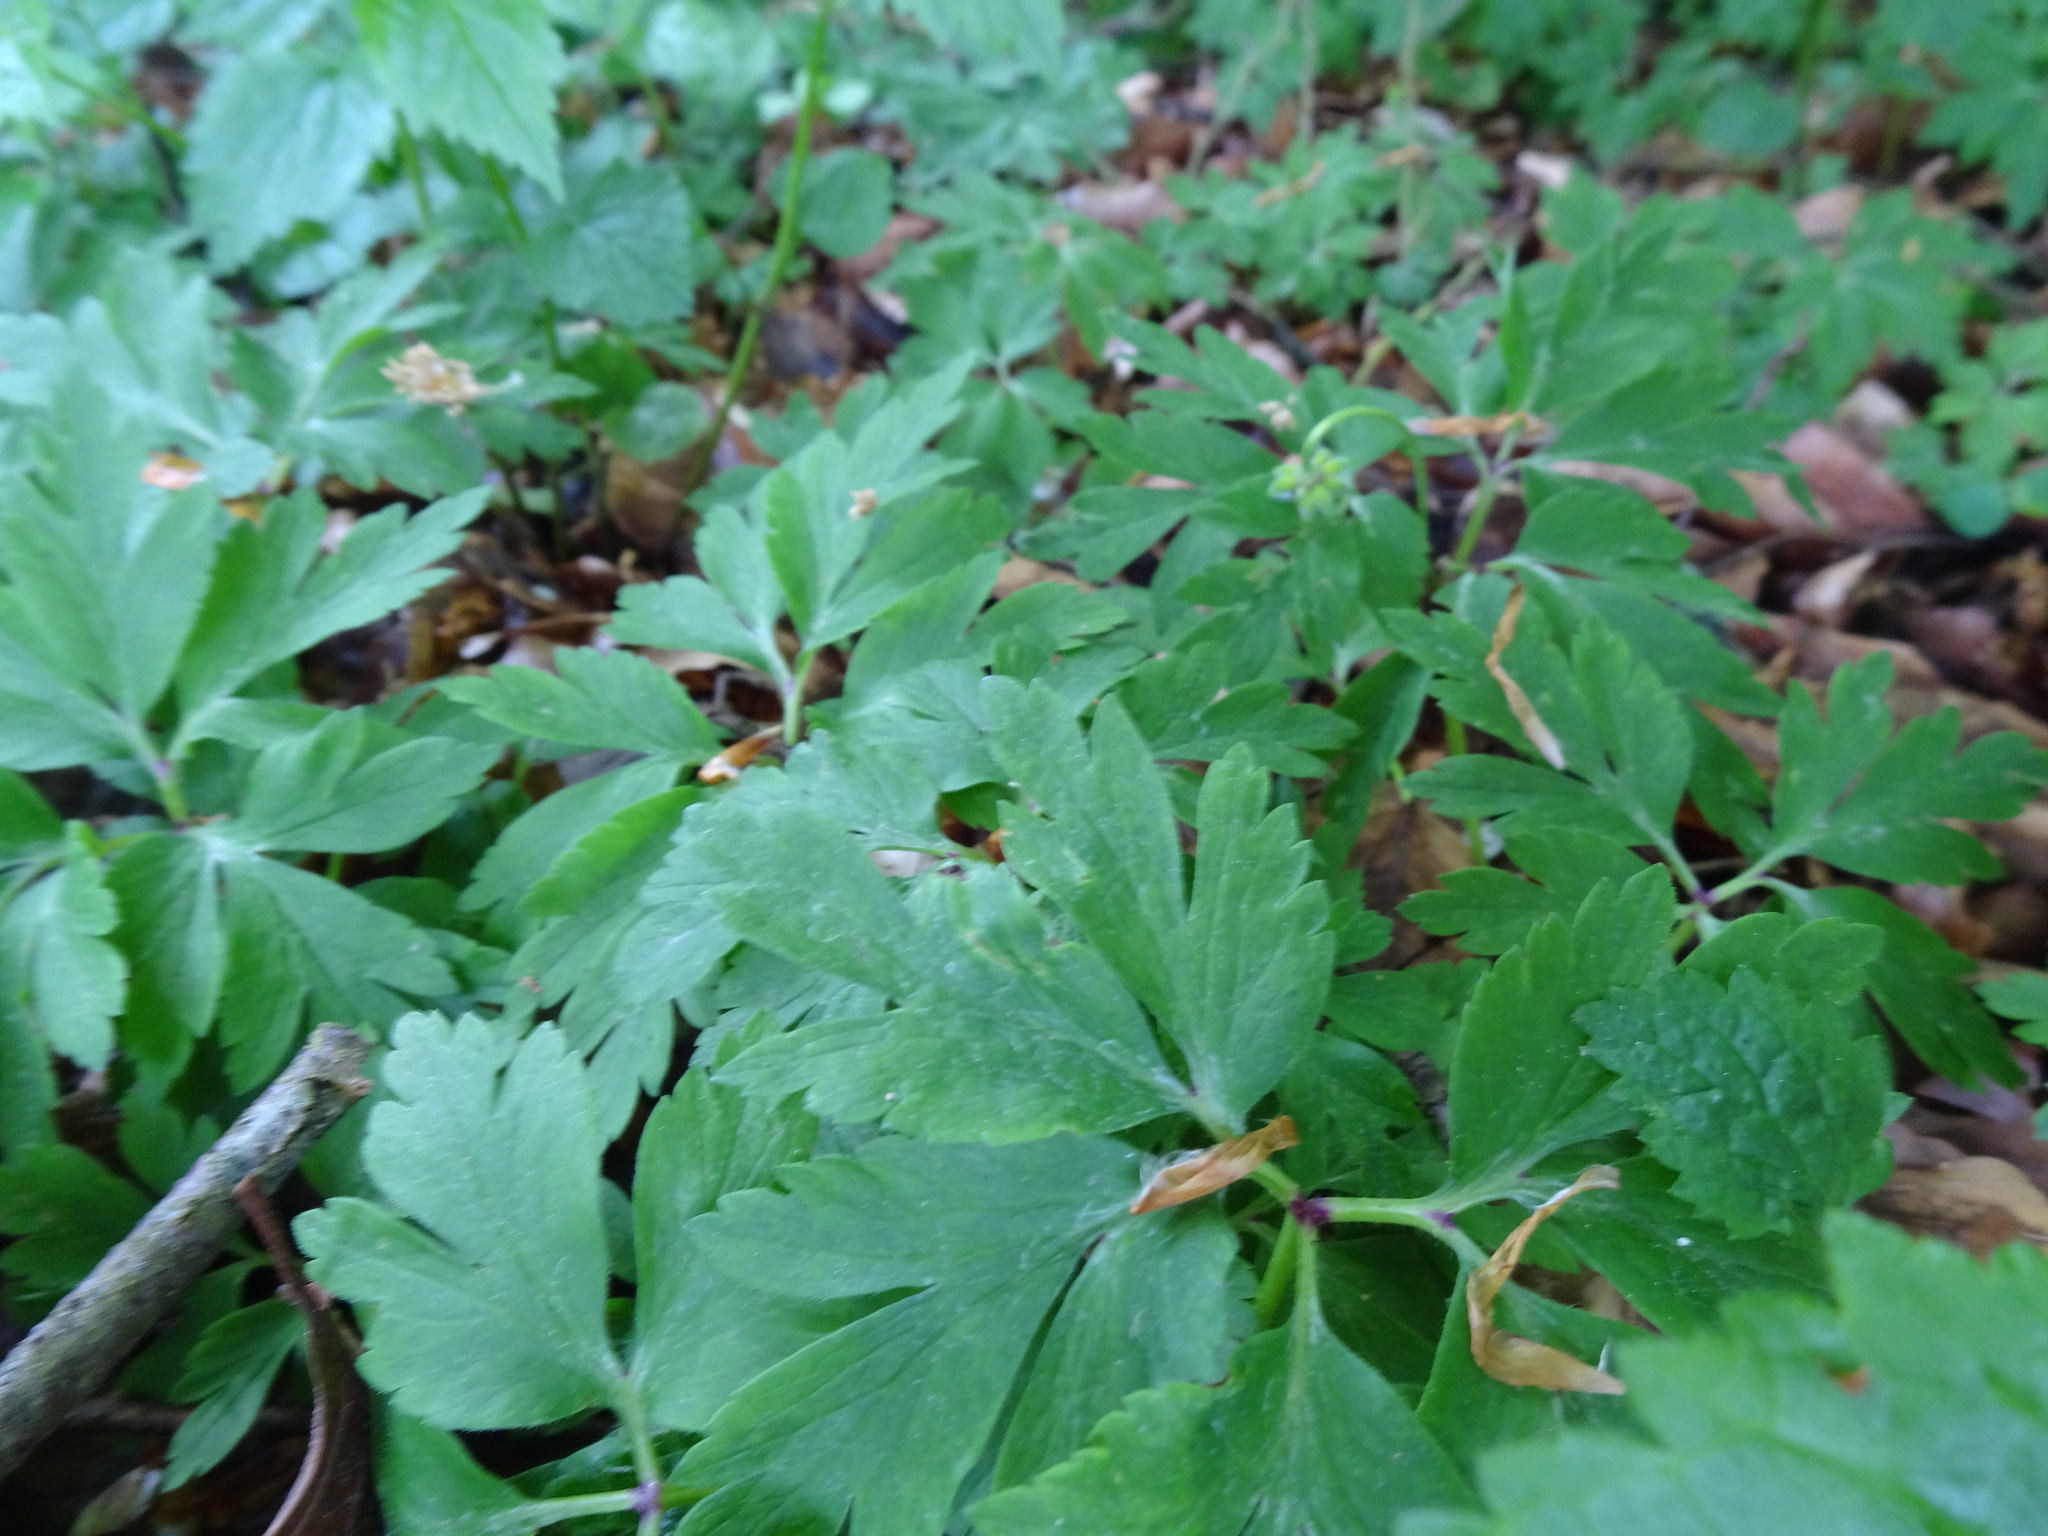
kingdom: Plantae
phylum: Tracheophyta
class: Magnoliopsida
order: Ranunculales
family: Ranunculaceae
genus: Anemone
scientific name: Anemone nemorosa
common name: Wood anemone
